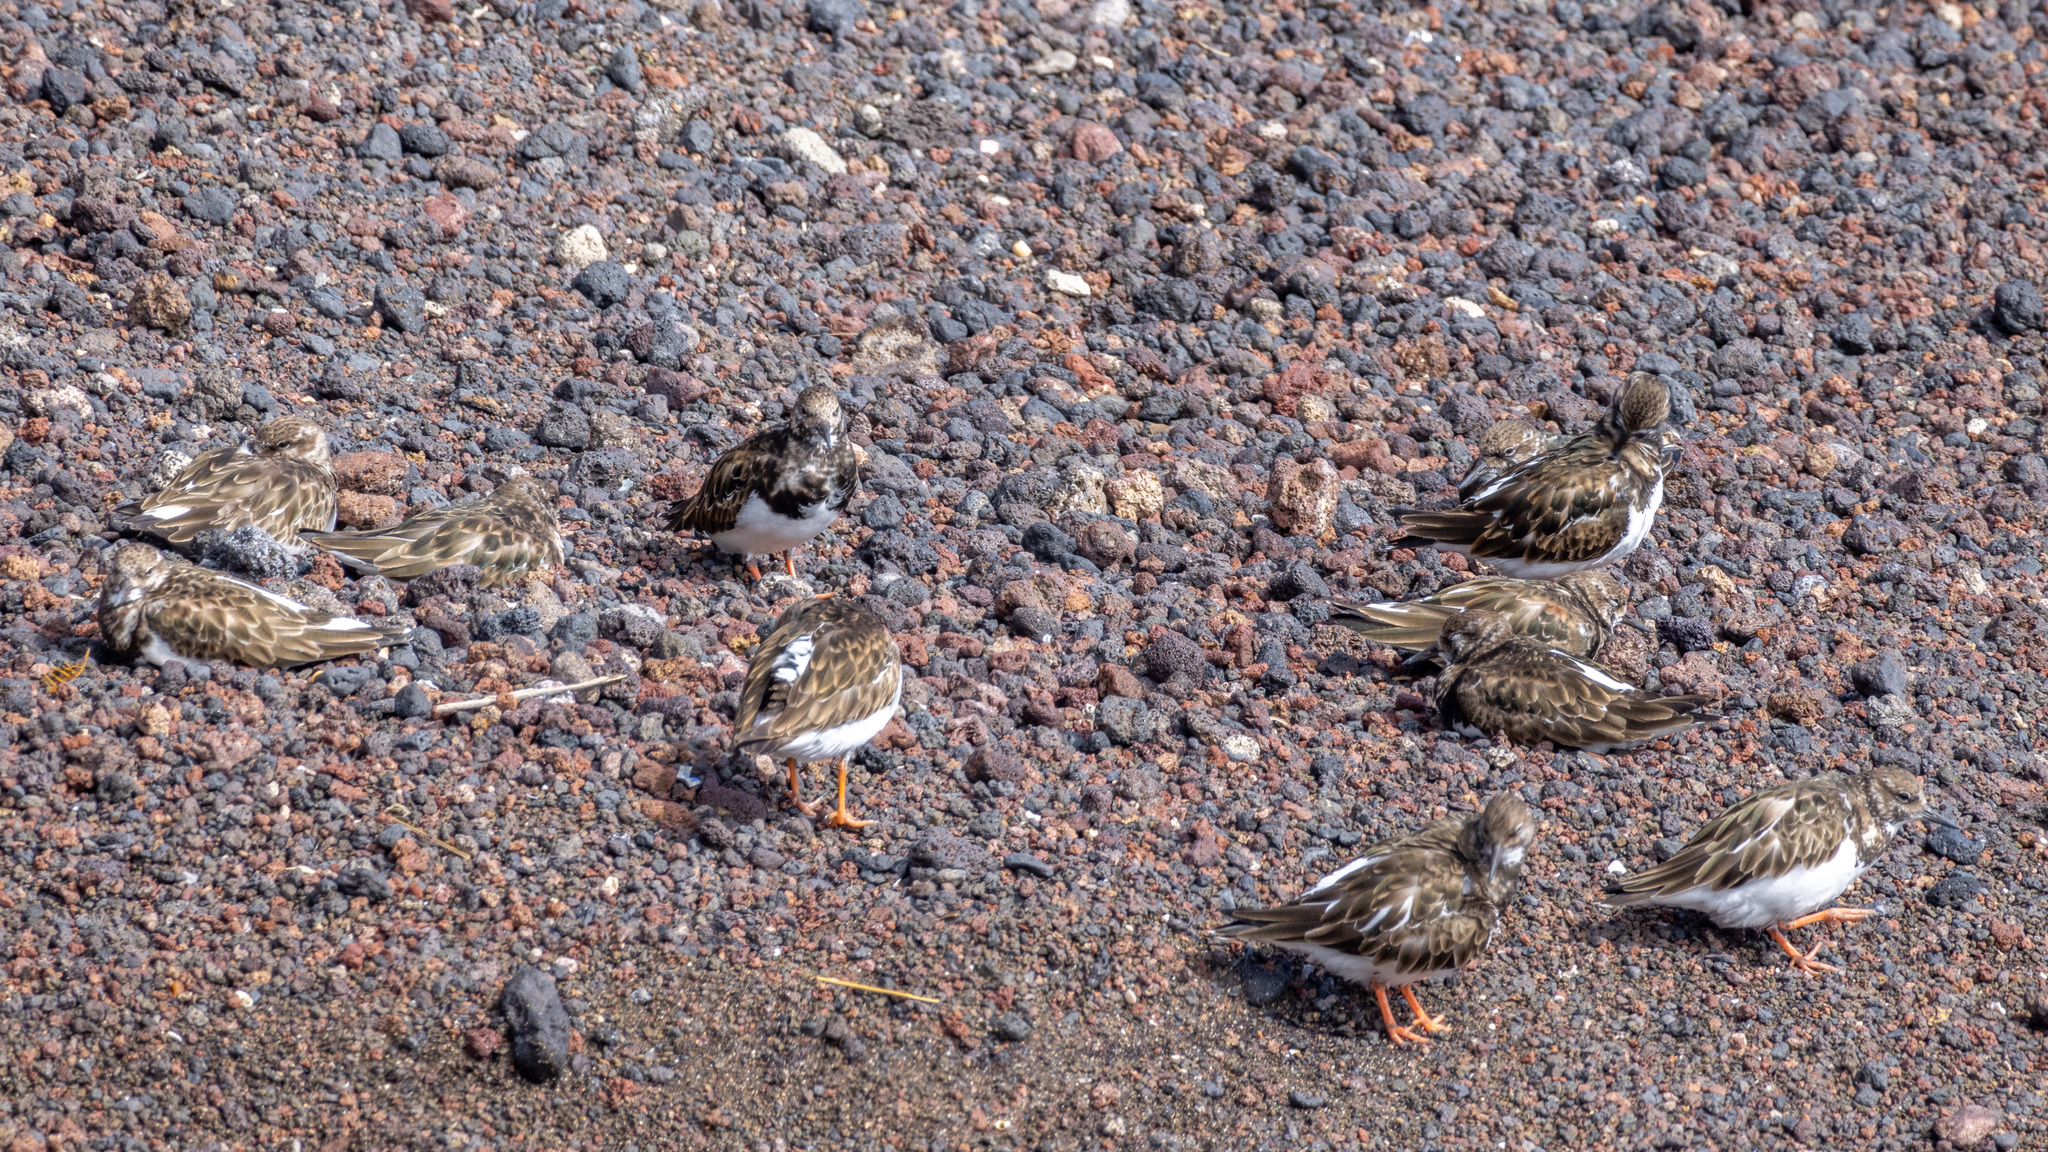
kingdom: Animalia
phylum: Chordata
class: Aves
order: Charadriiformes
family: Scolopacidae
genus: Arenaria
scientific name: Arenaria interpres
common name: Ruddy turnstone
